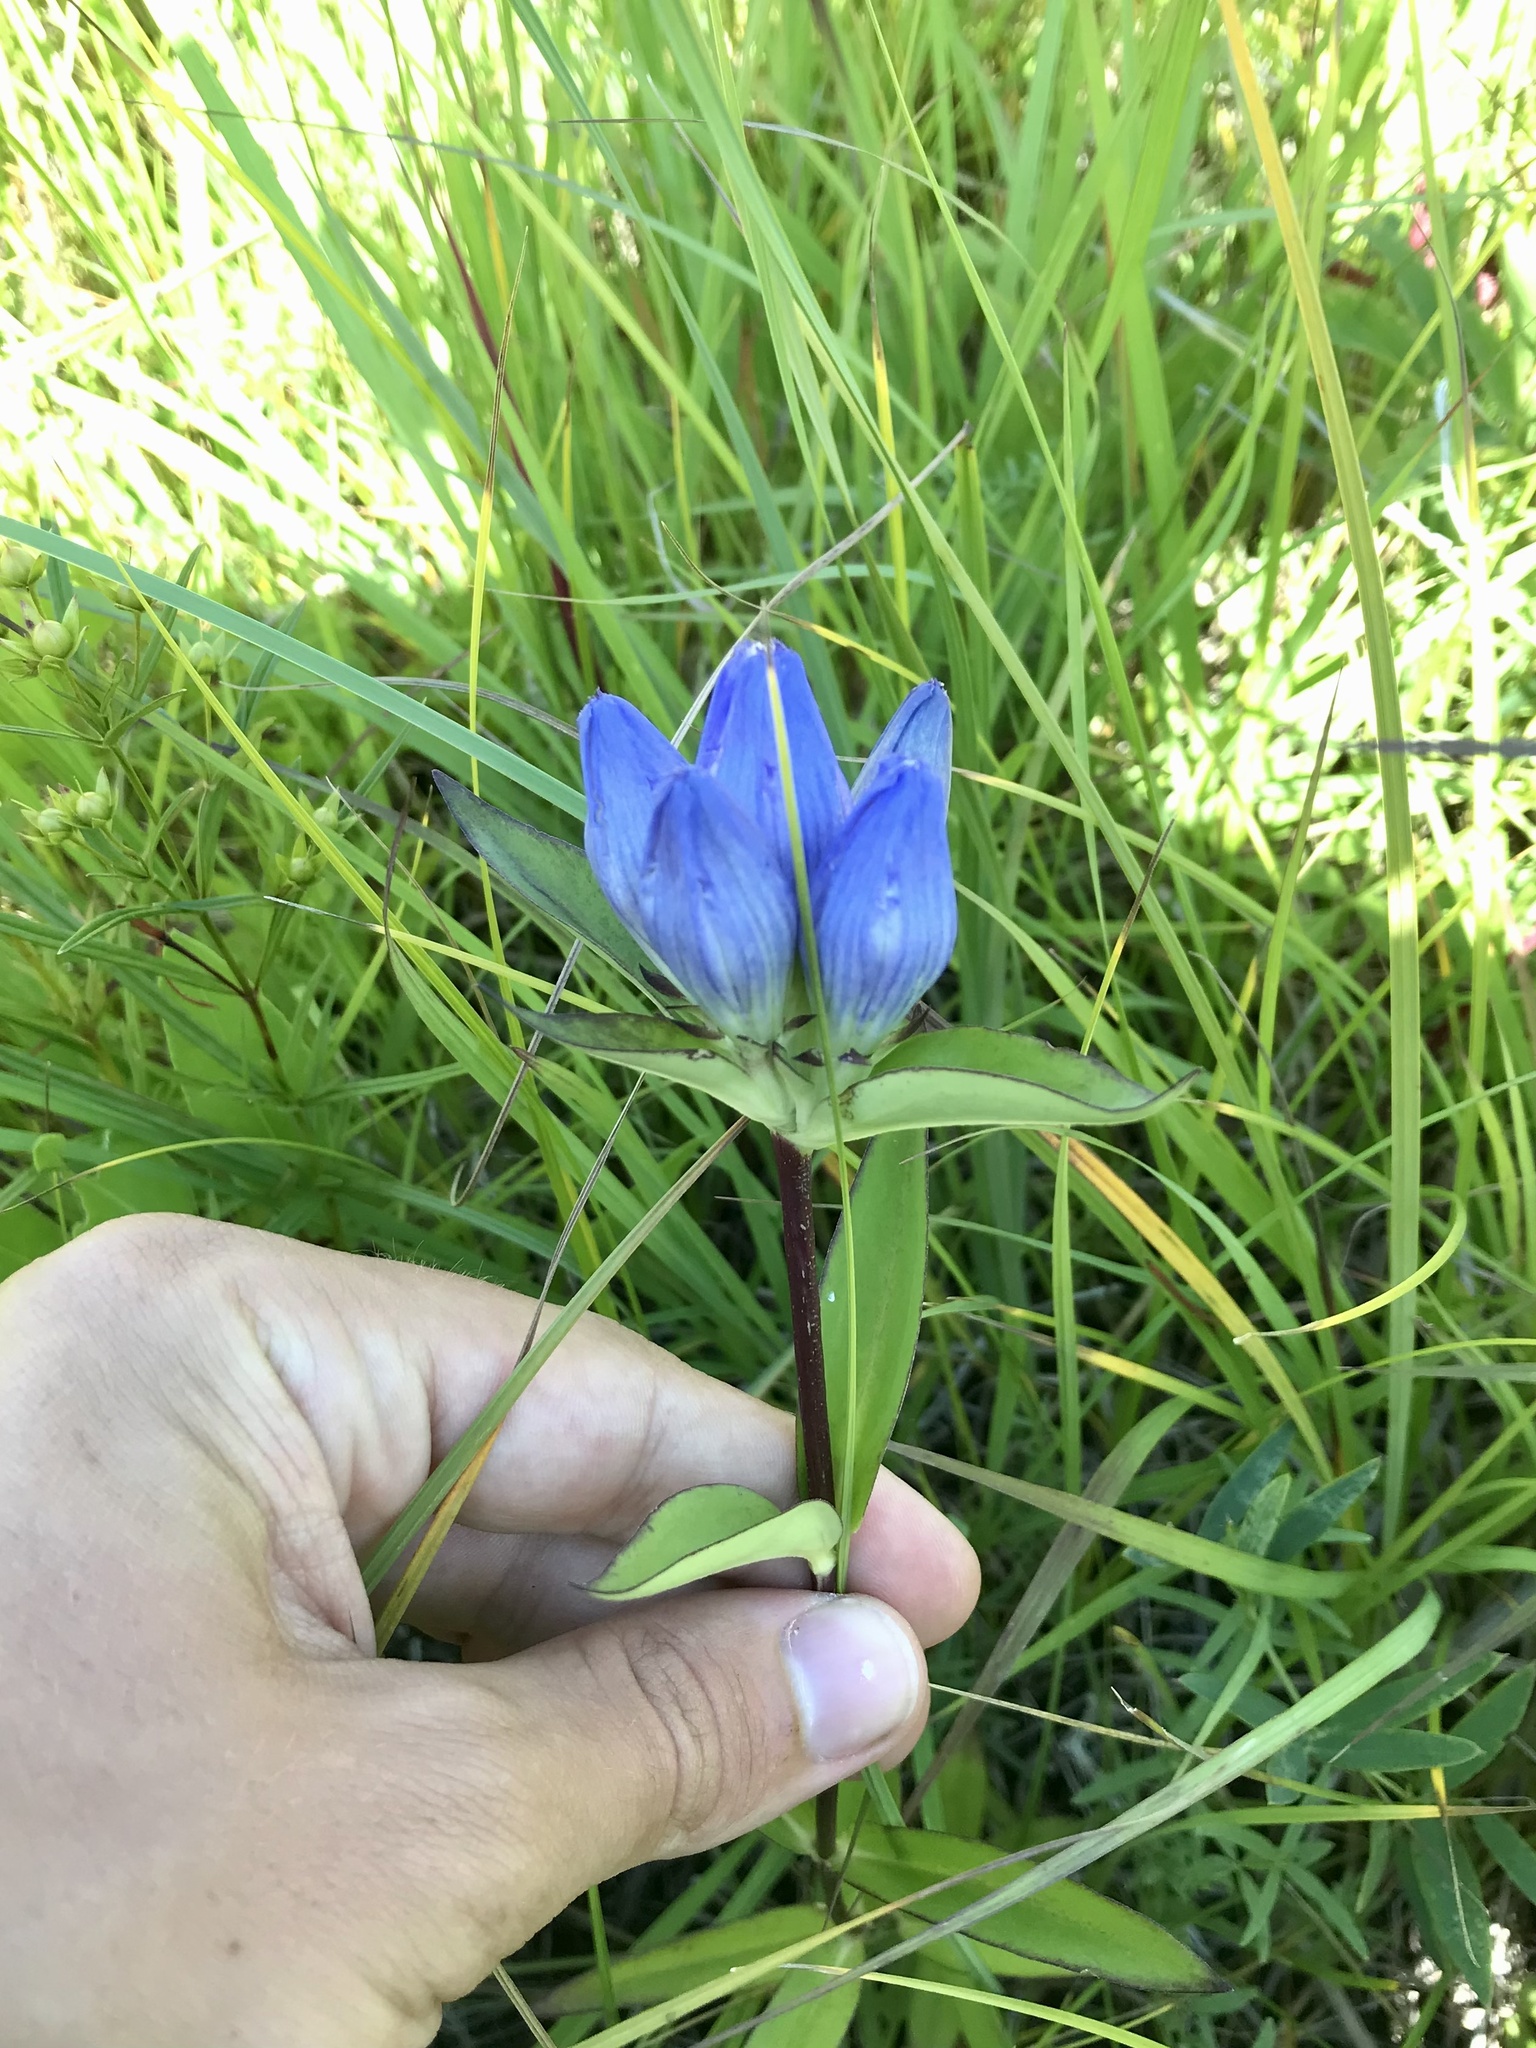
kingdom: Plantae
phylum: Tracheophyta
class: Magnoliopsida
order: Gentianales
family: Gentianaceae
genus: Gentiana
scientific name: Gentiana andrewsii
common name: Bottle gentian
